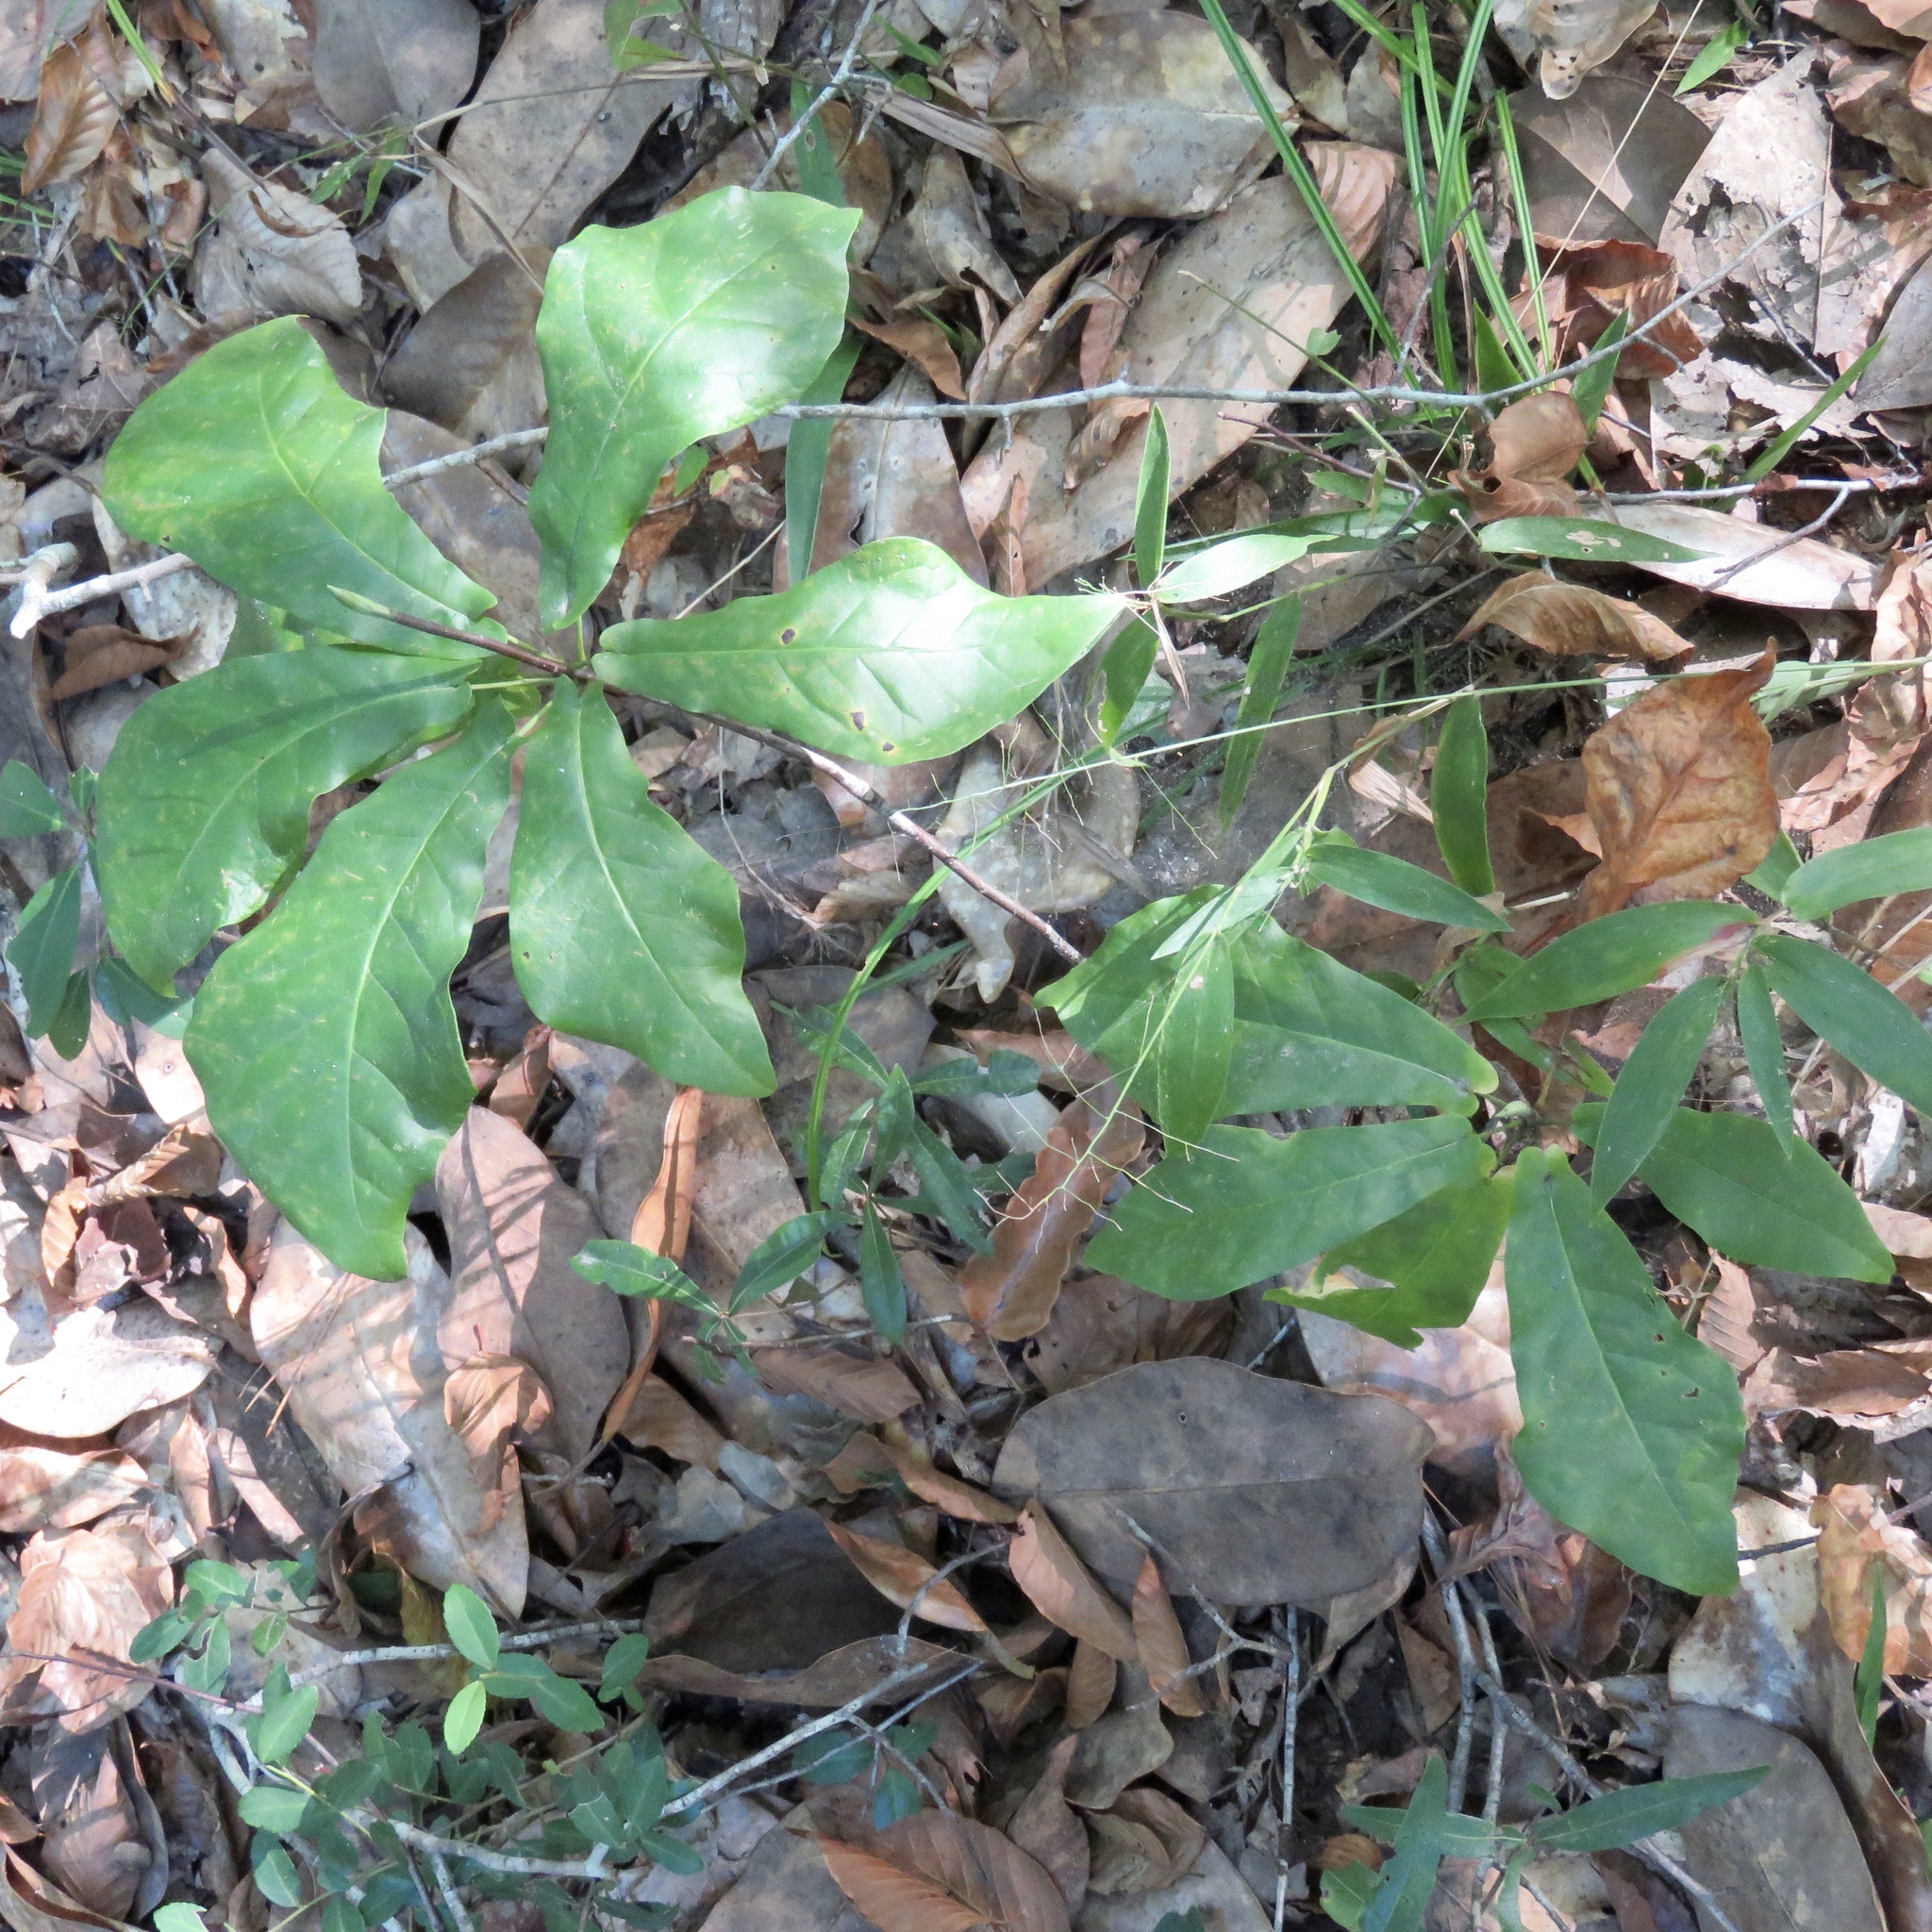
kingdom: Plantae
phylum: Tracheophyta
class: Magnoliopsida
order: Magnoliales
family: Magnoliaceae
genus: Magnolia
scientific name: Magnolia fraseri
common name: Fraser's magnolia
